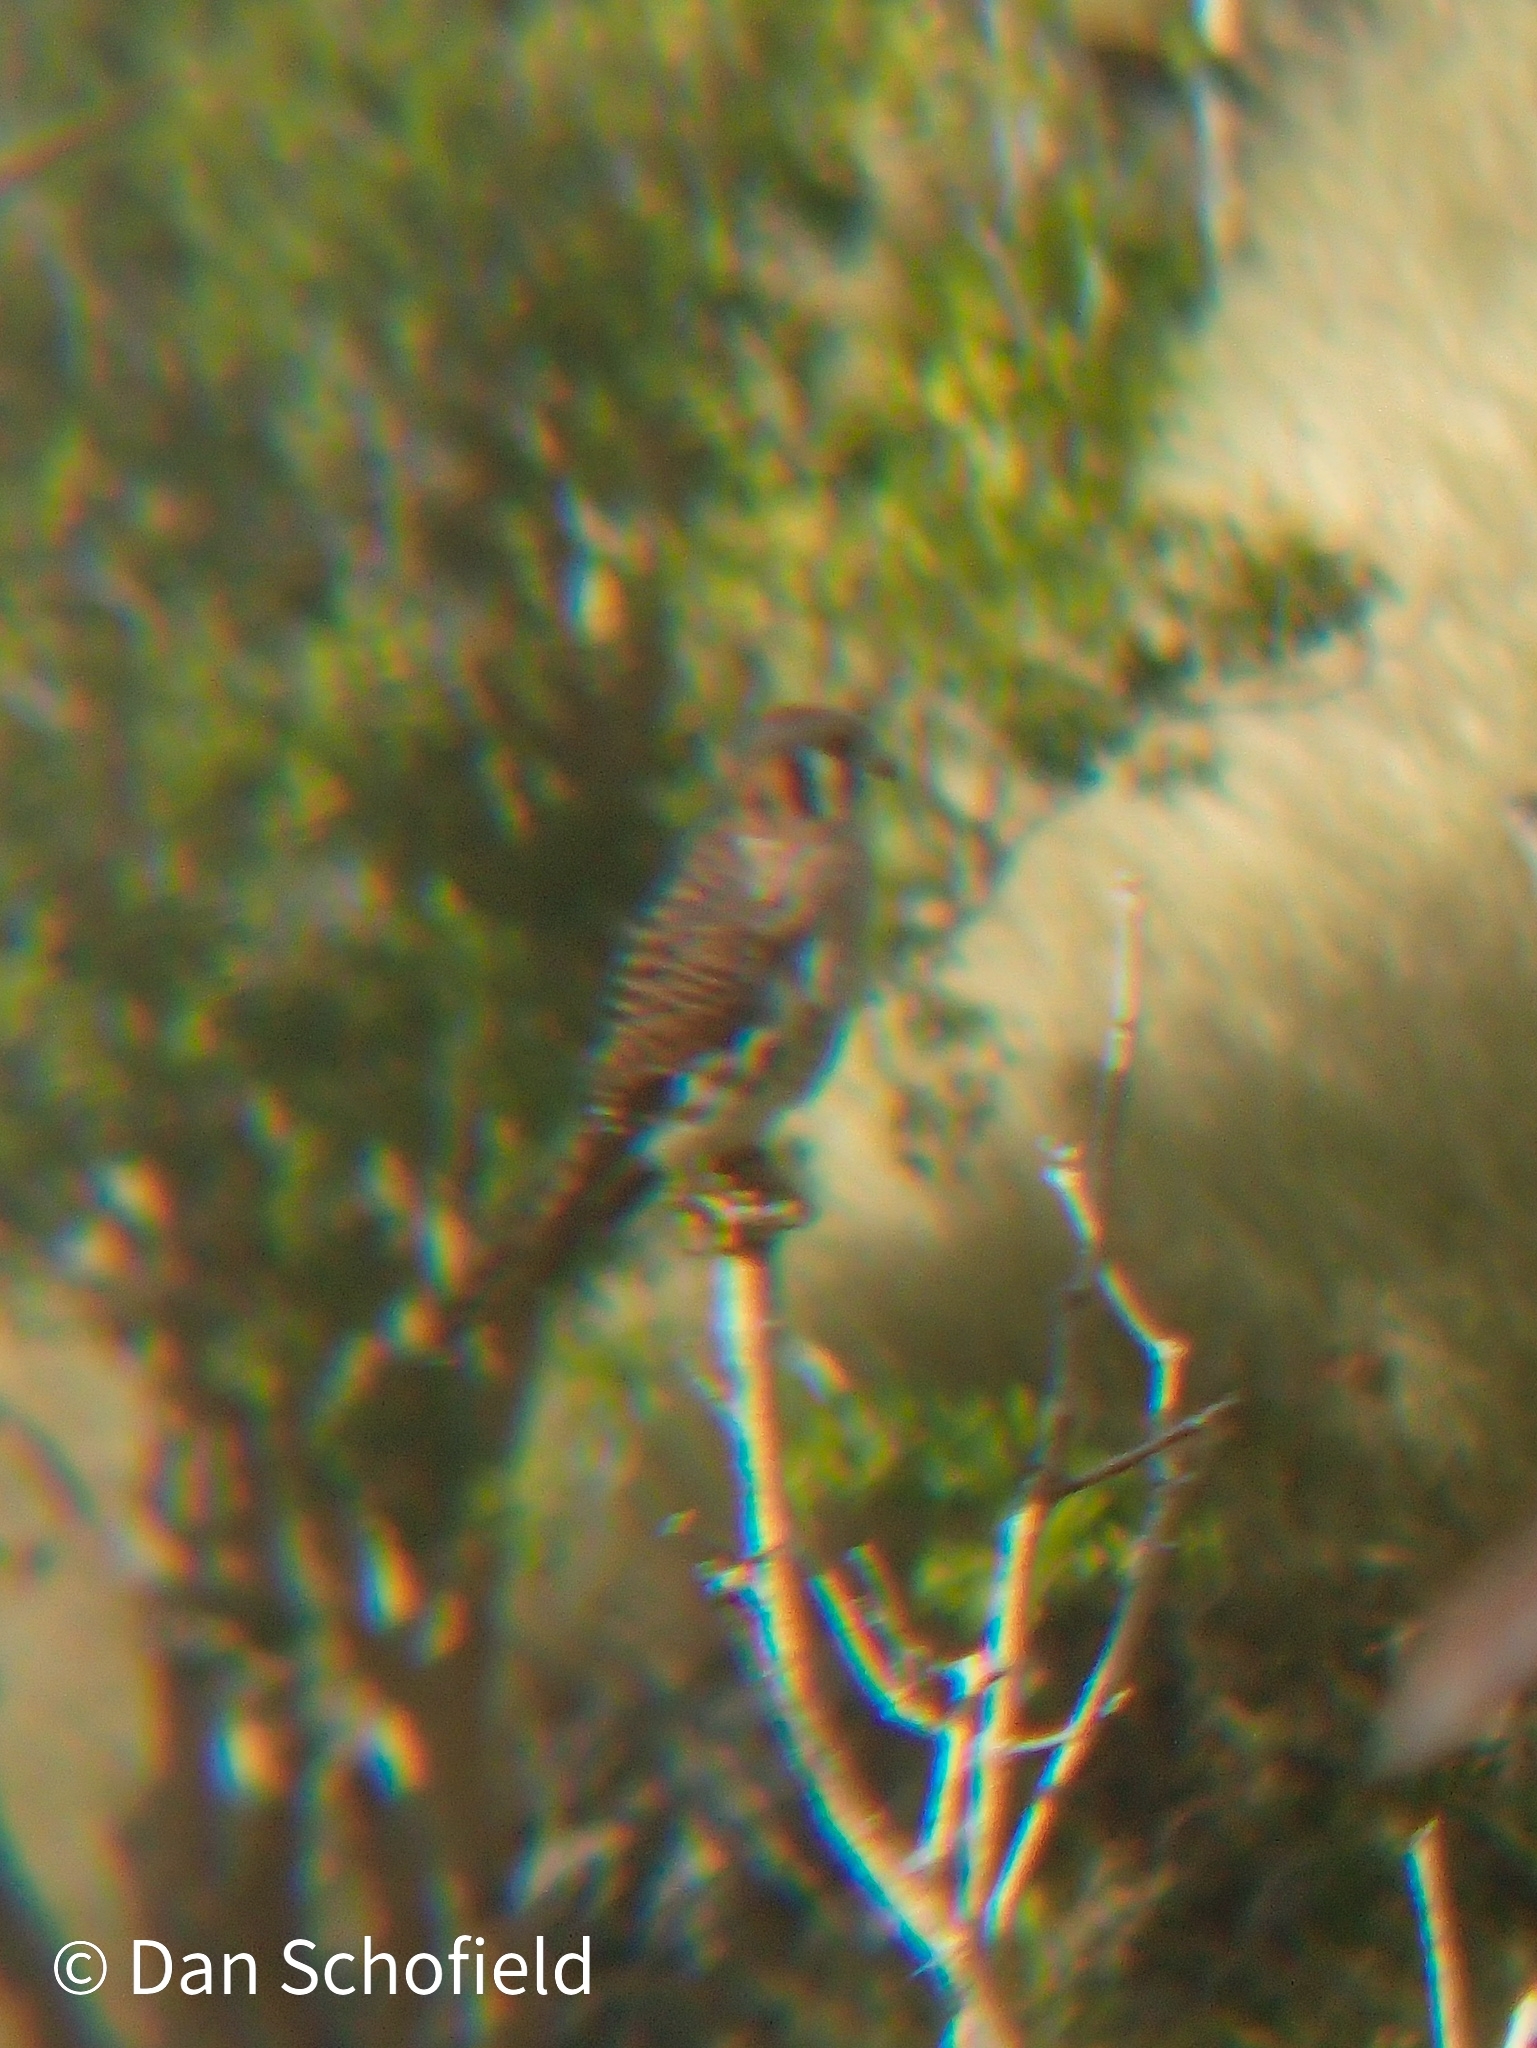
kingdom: Animalia
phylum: Chordata
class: Aves
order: Falconiformes
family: Falconidae
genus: Falco
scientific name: Falco sparverius
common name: American kestrel
